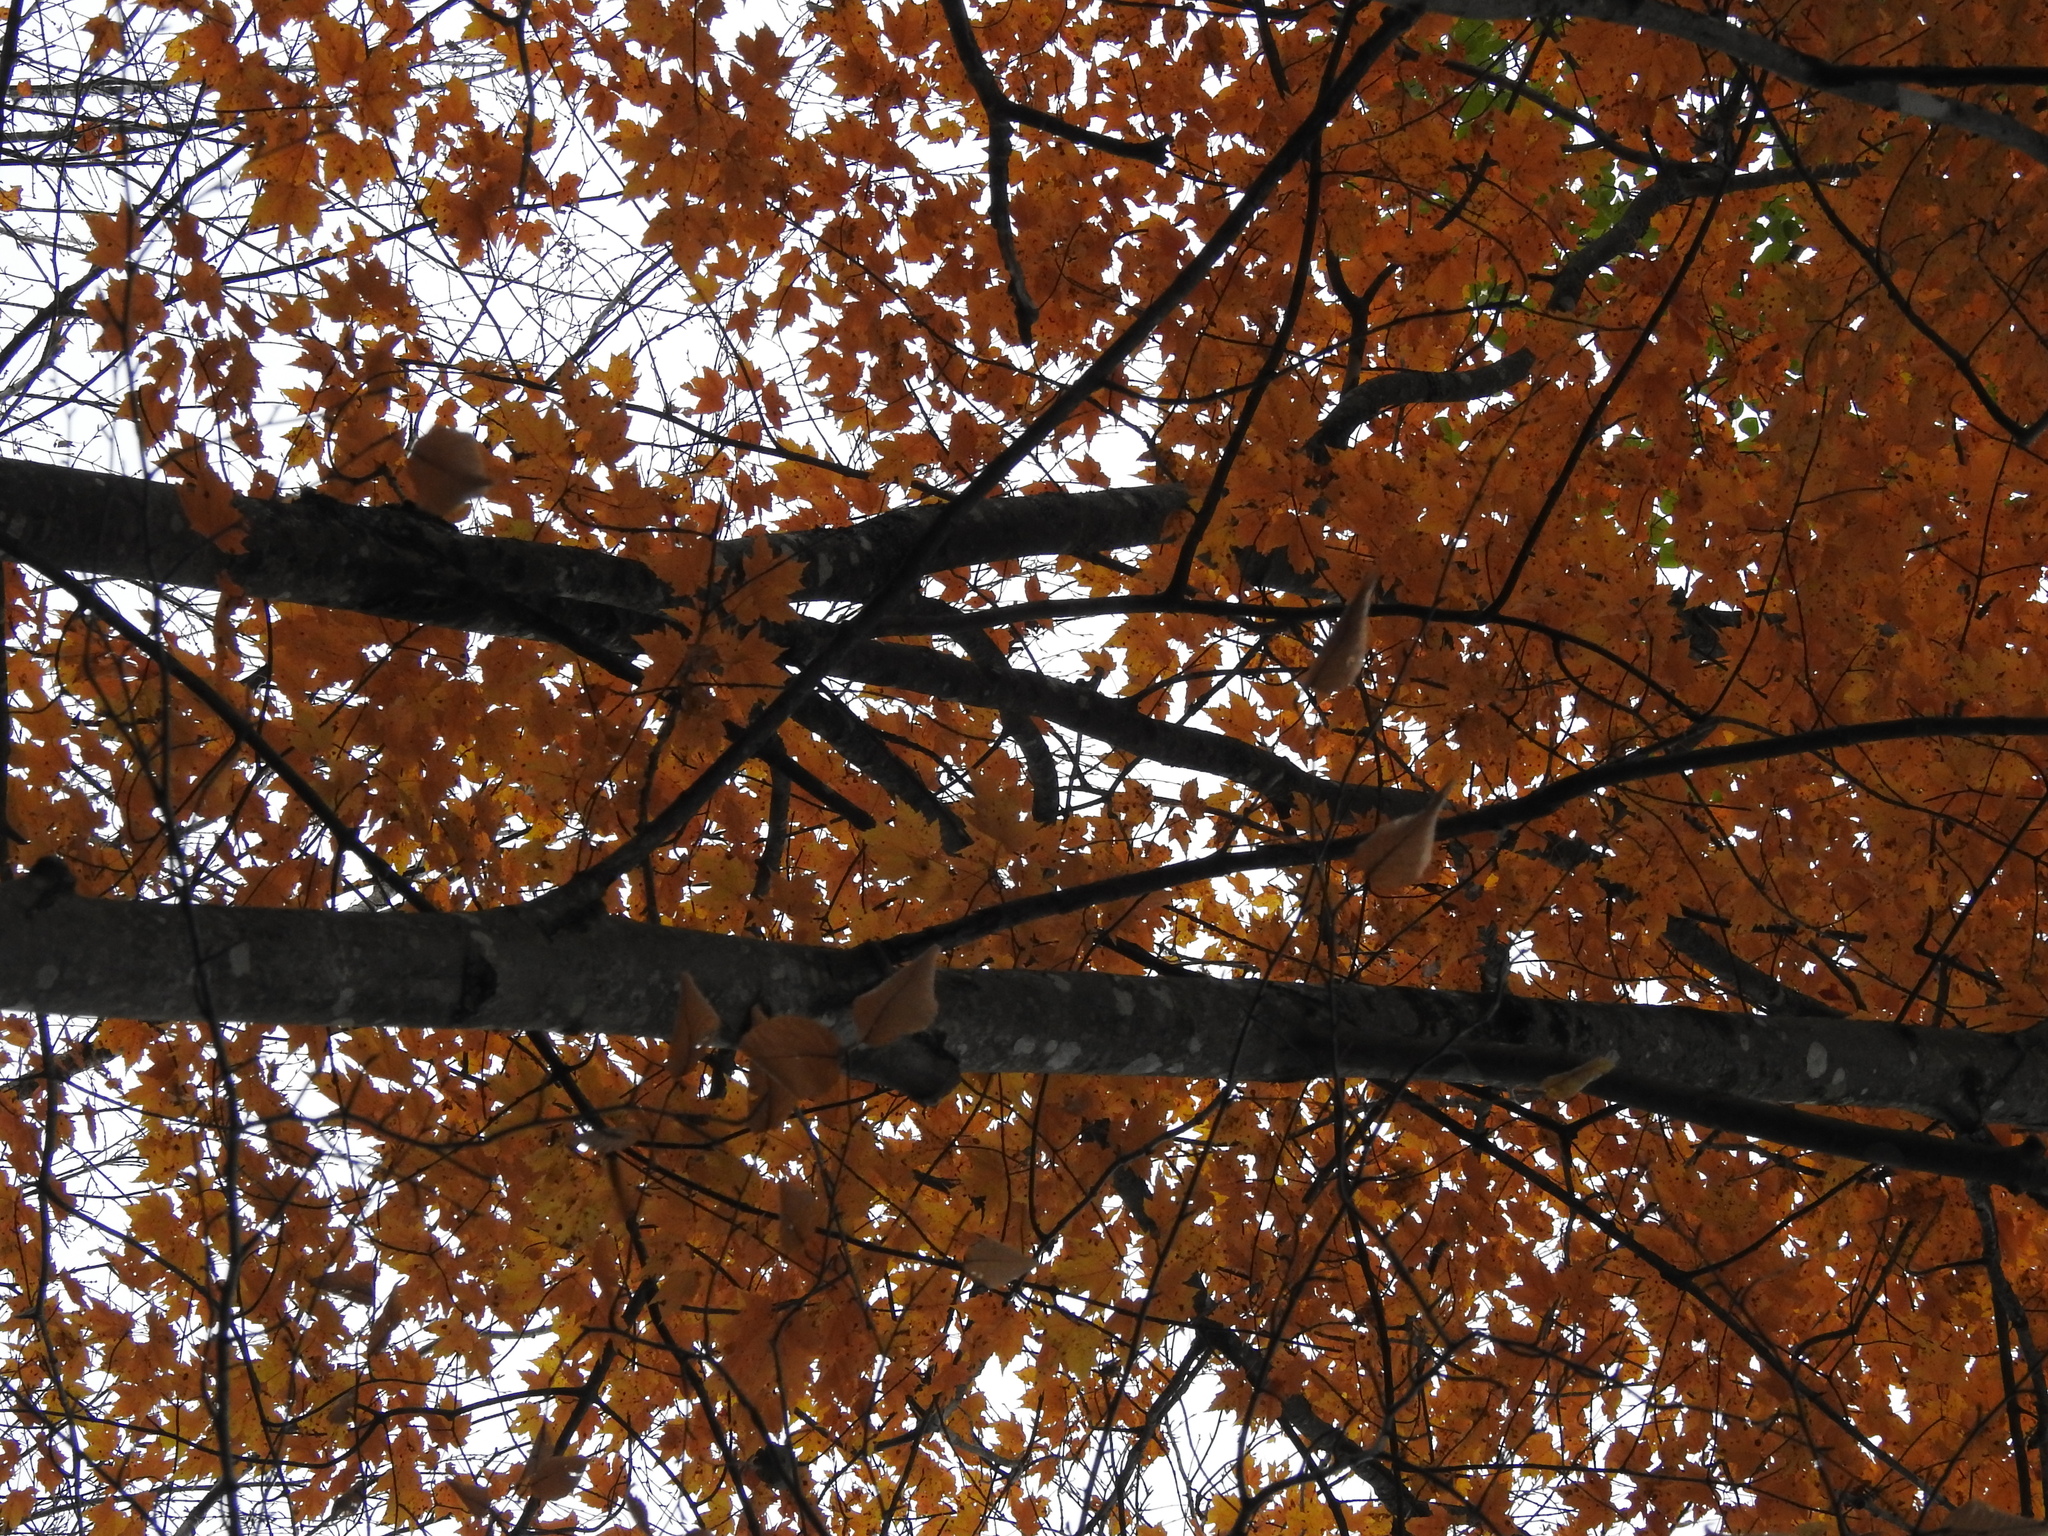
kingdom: Plantae
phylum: Tracheophyta
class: Magnoliopsida
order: Sapindales
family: Sapindaceae
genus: Acer
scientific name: Acer rubrum
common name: Red maple
